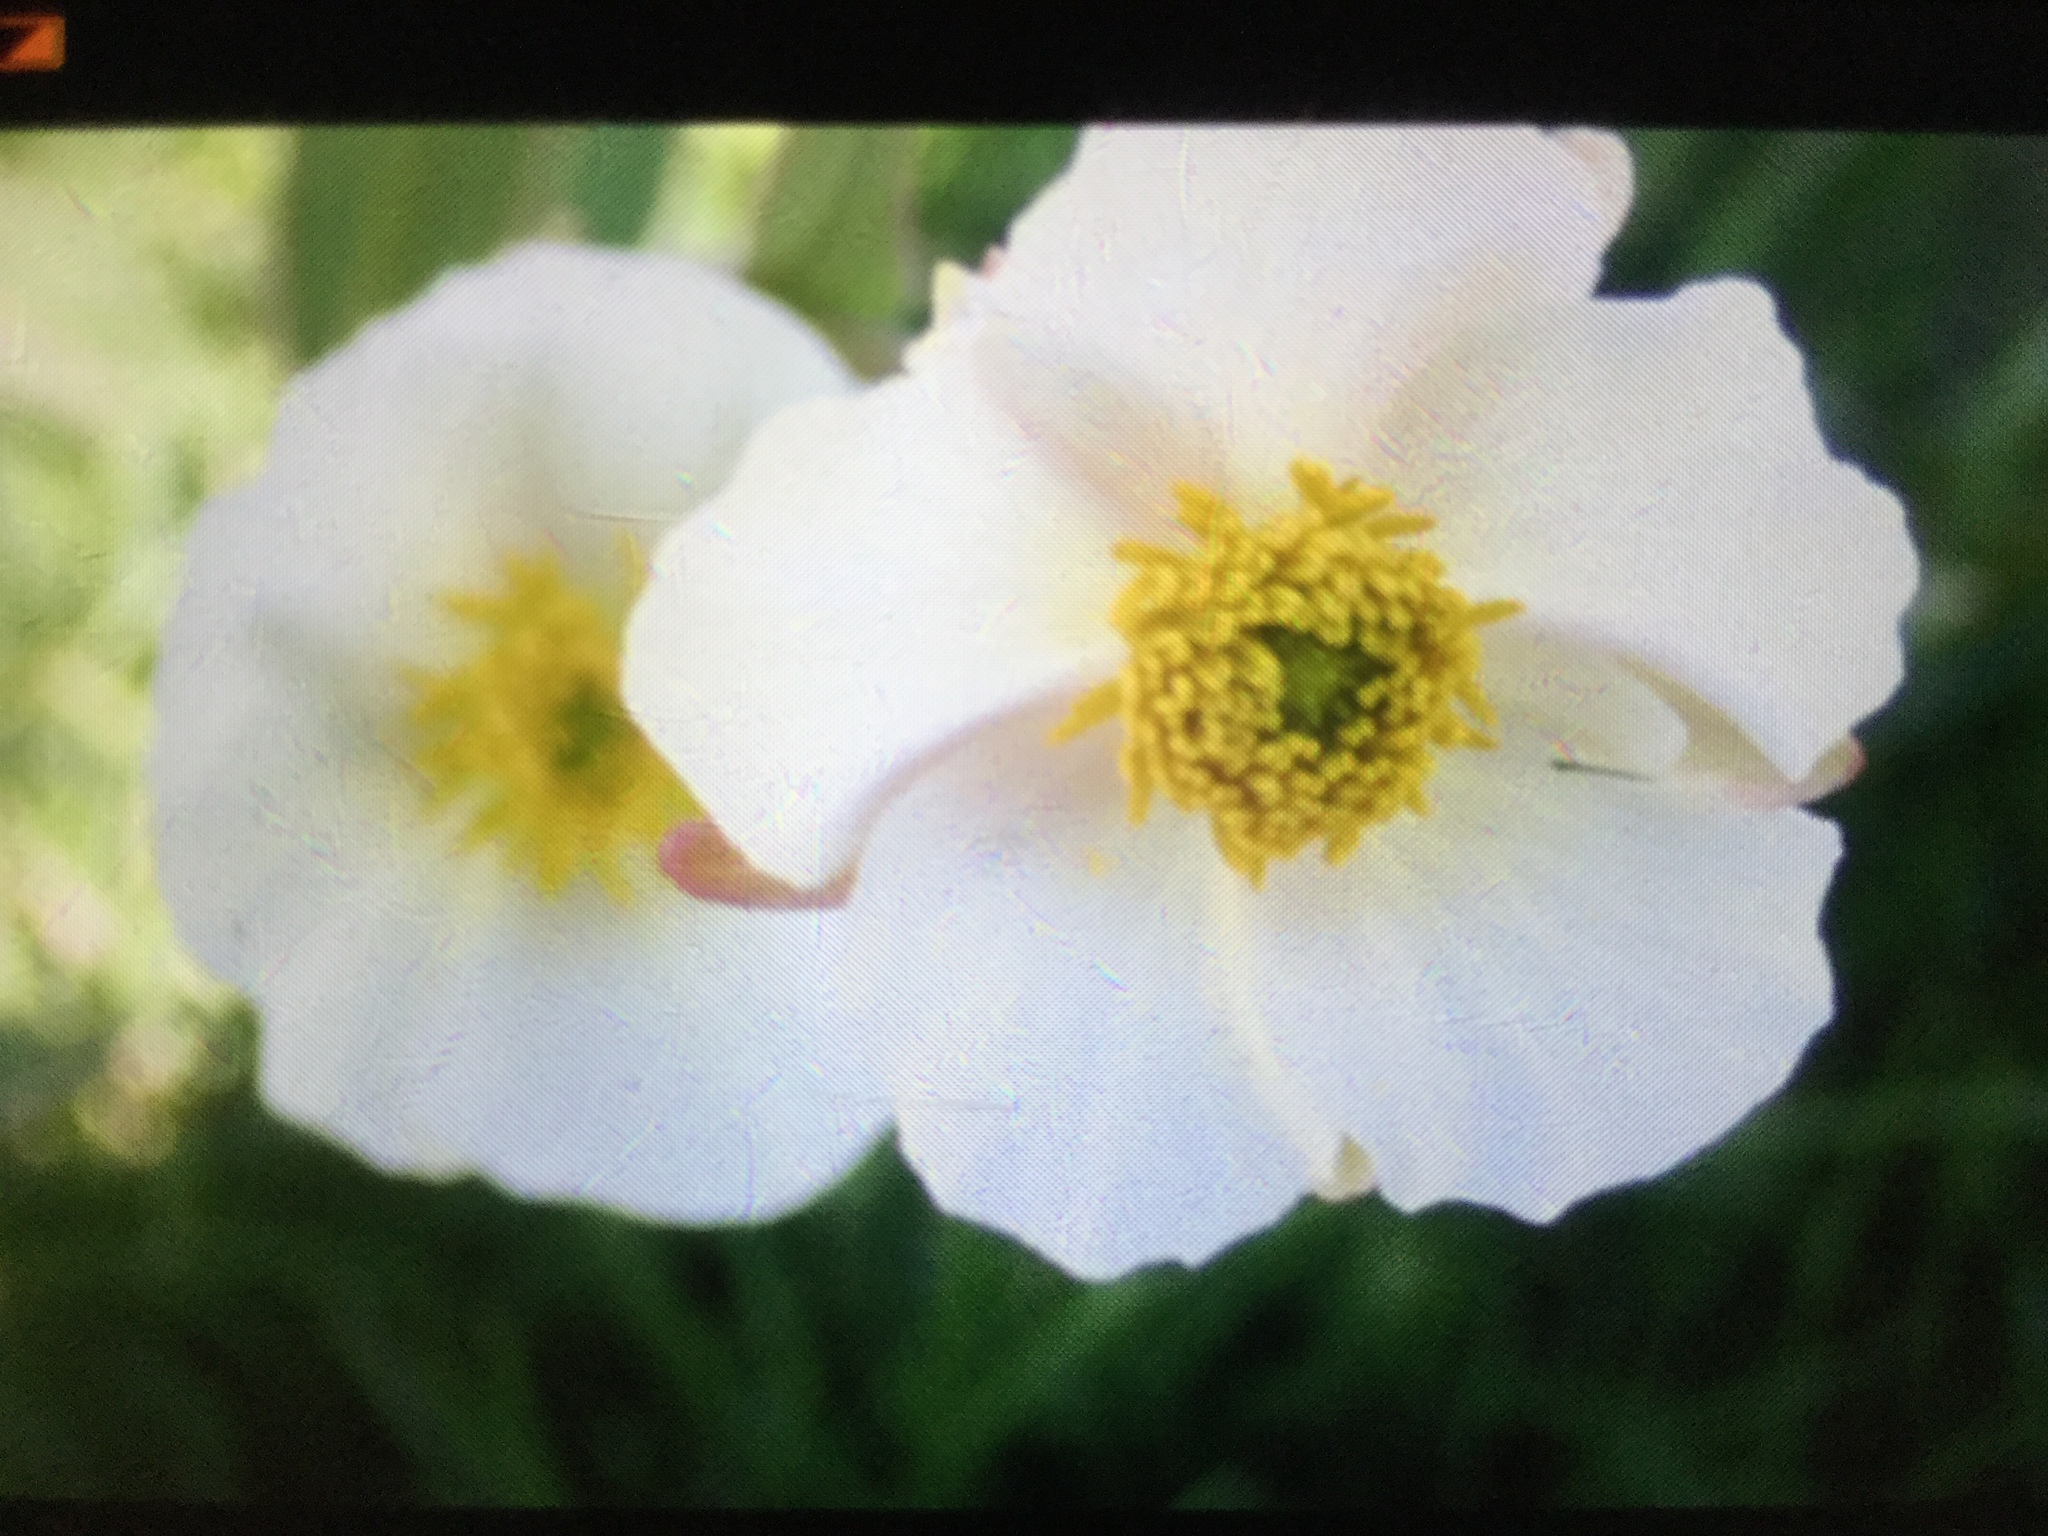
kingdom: Plantae
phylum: Tracheophyta
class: Magnoliopsida
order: Ranunculales
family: Ranunculaceae
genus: Ranunculus
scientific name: Ranunculus pyrenaeus
